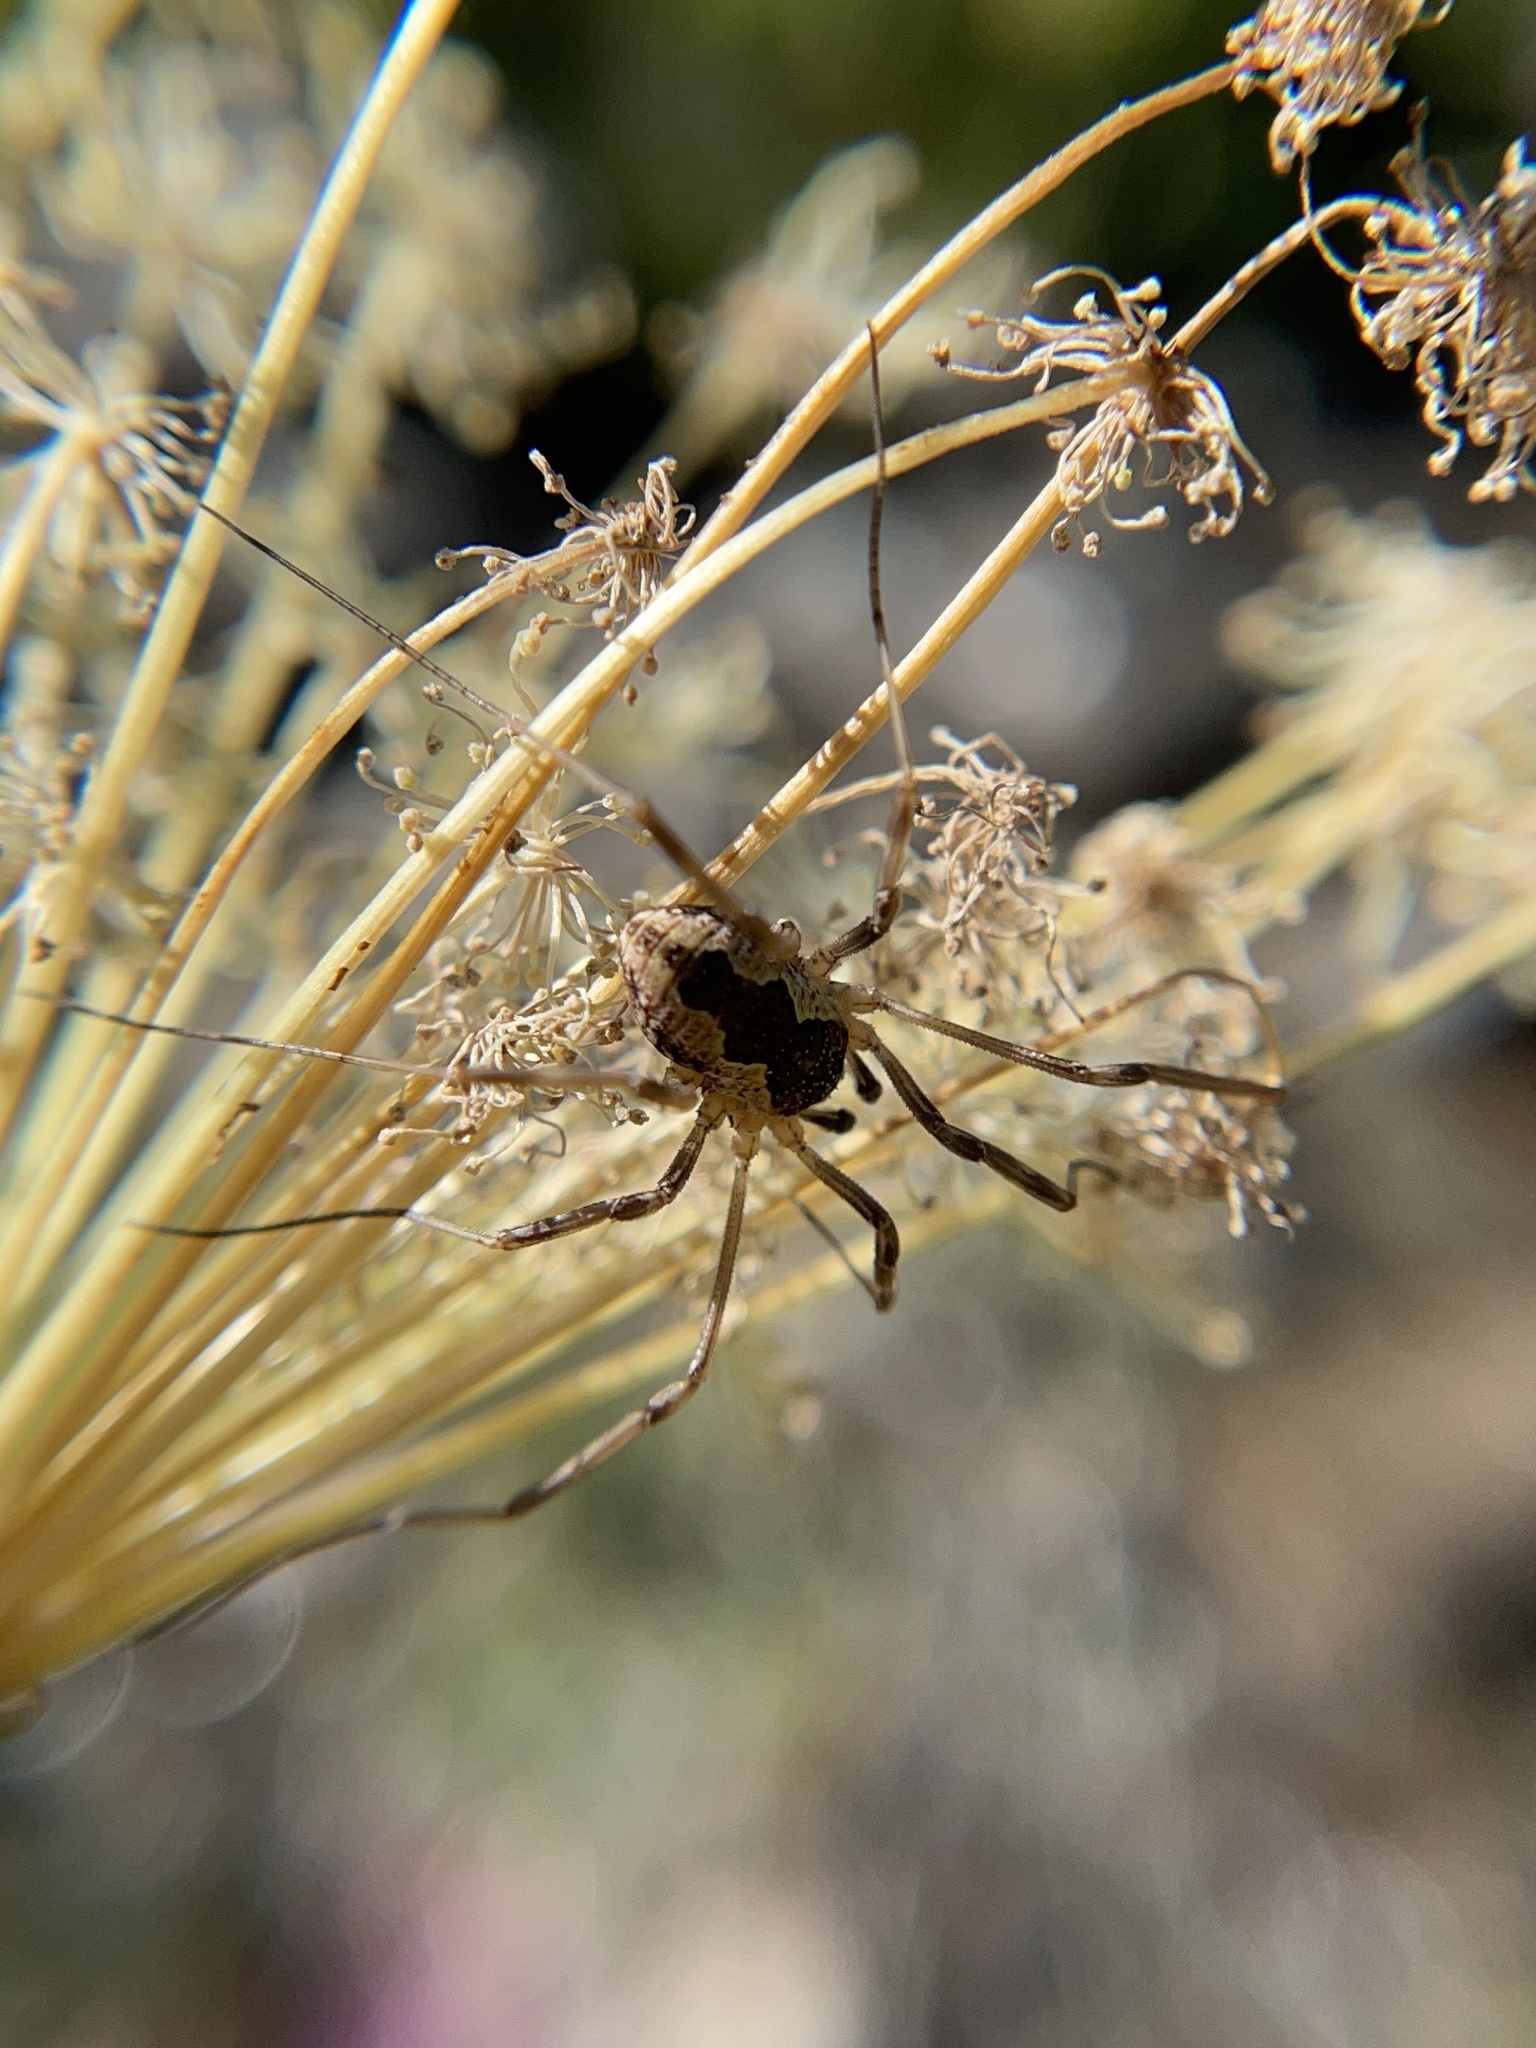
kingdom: Animalia
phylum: Arthropoda
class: Arachnida
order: Opiliones
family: Phalangiidae
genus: Mitopus
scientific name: Mitopus morio
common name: Saddleback harvestman
